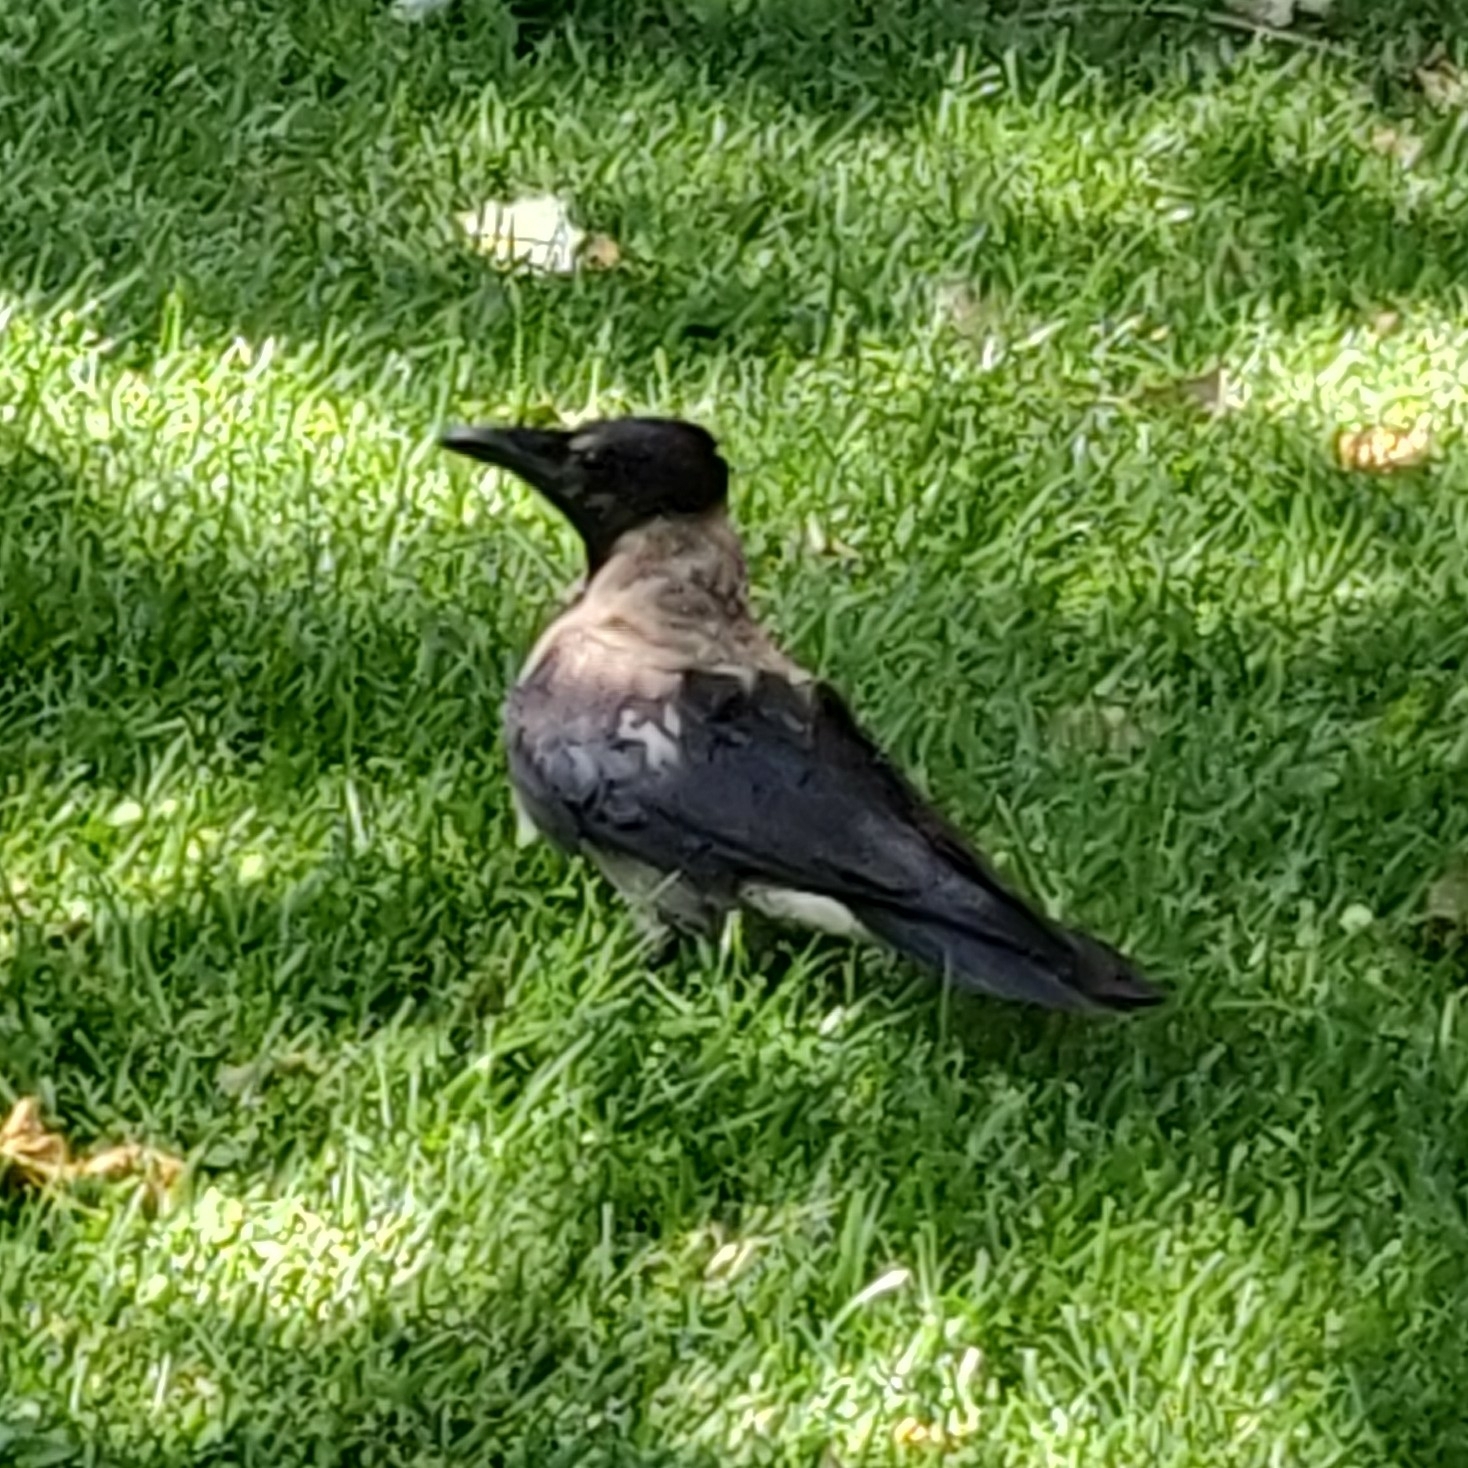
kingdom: Animalia
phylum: Chordata
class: Aves
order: Passeriformes
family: Corvidae
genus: Corvus
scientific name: Corvus cornix
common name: Hooded crow
